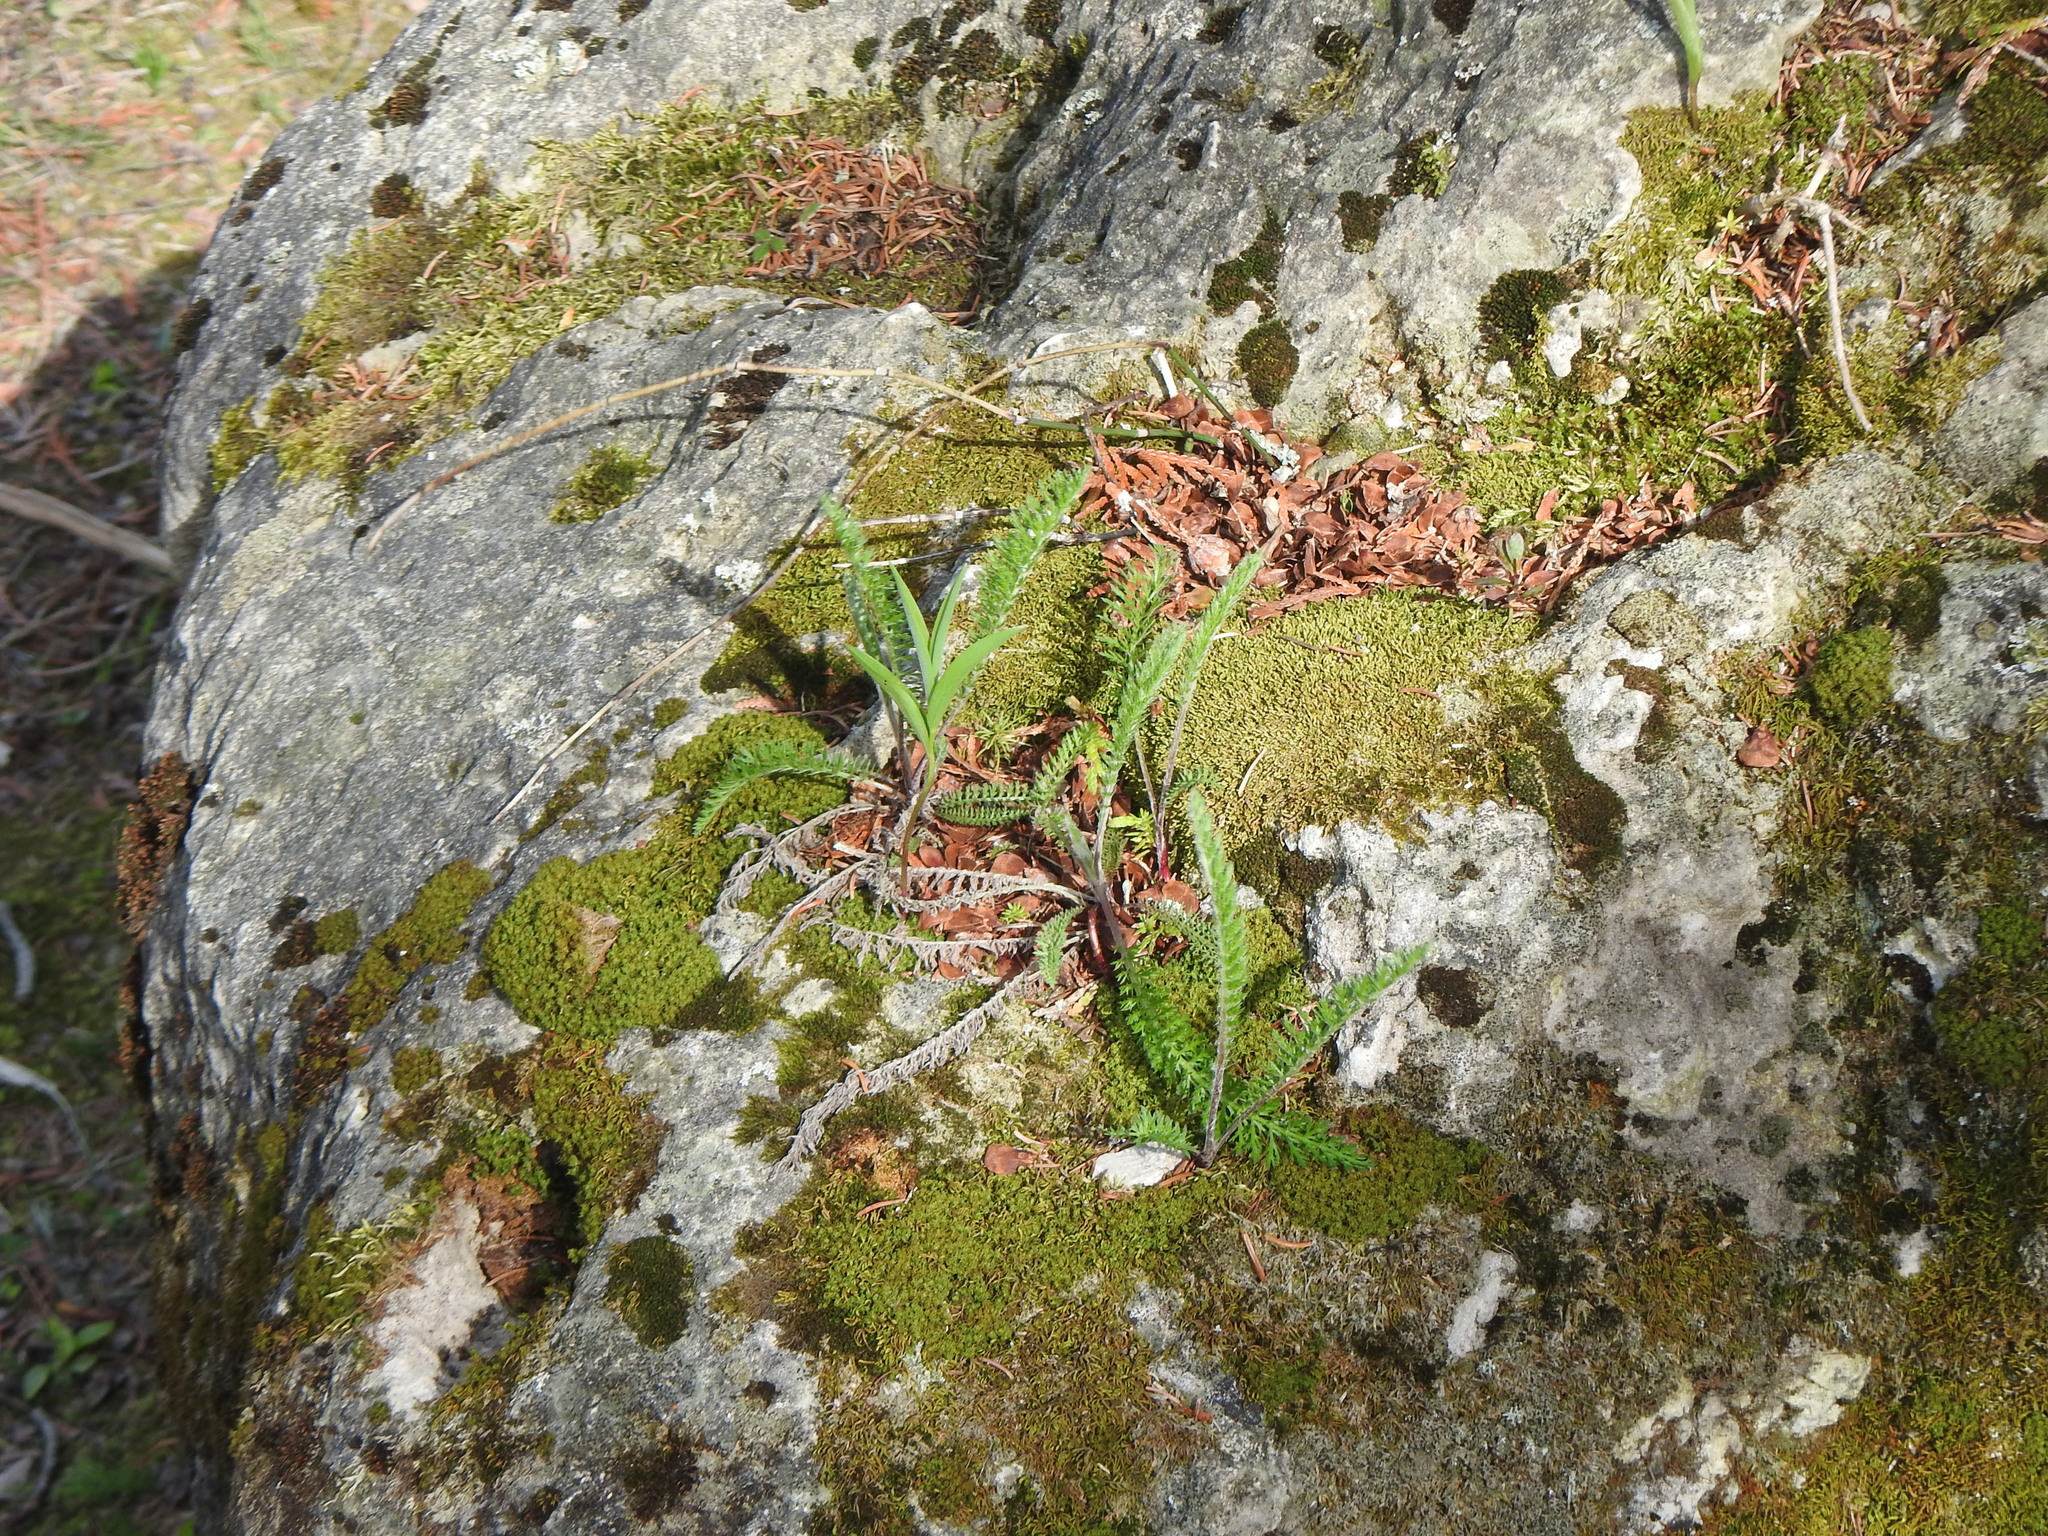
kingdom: Plantae
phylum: Tracheophyta
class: Magnoliopsida
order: Asterales
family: Asteraceae
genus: Achillea
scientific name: Achillea millefolium
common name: Yarrow
